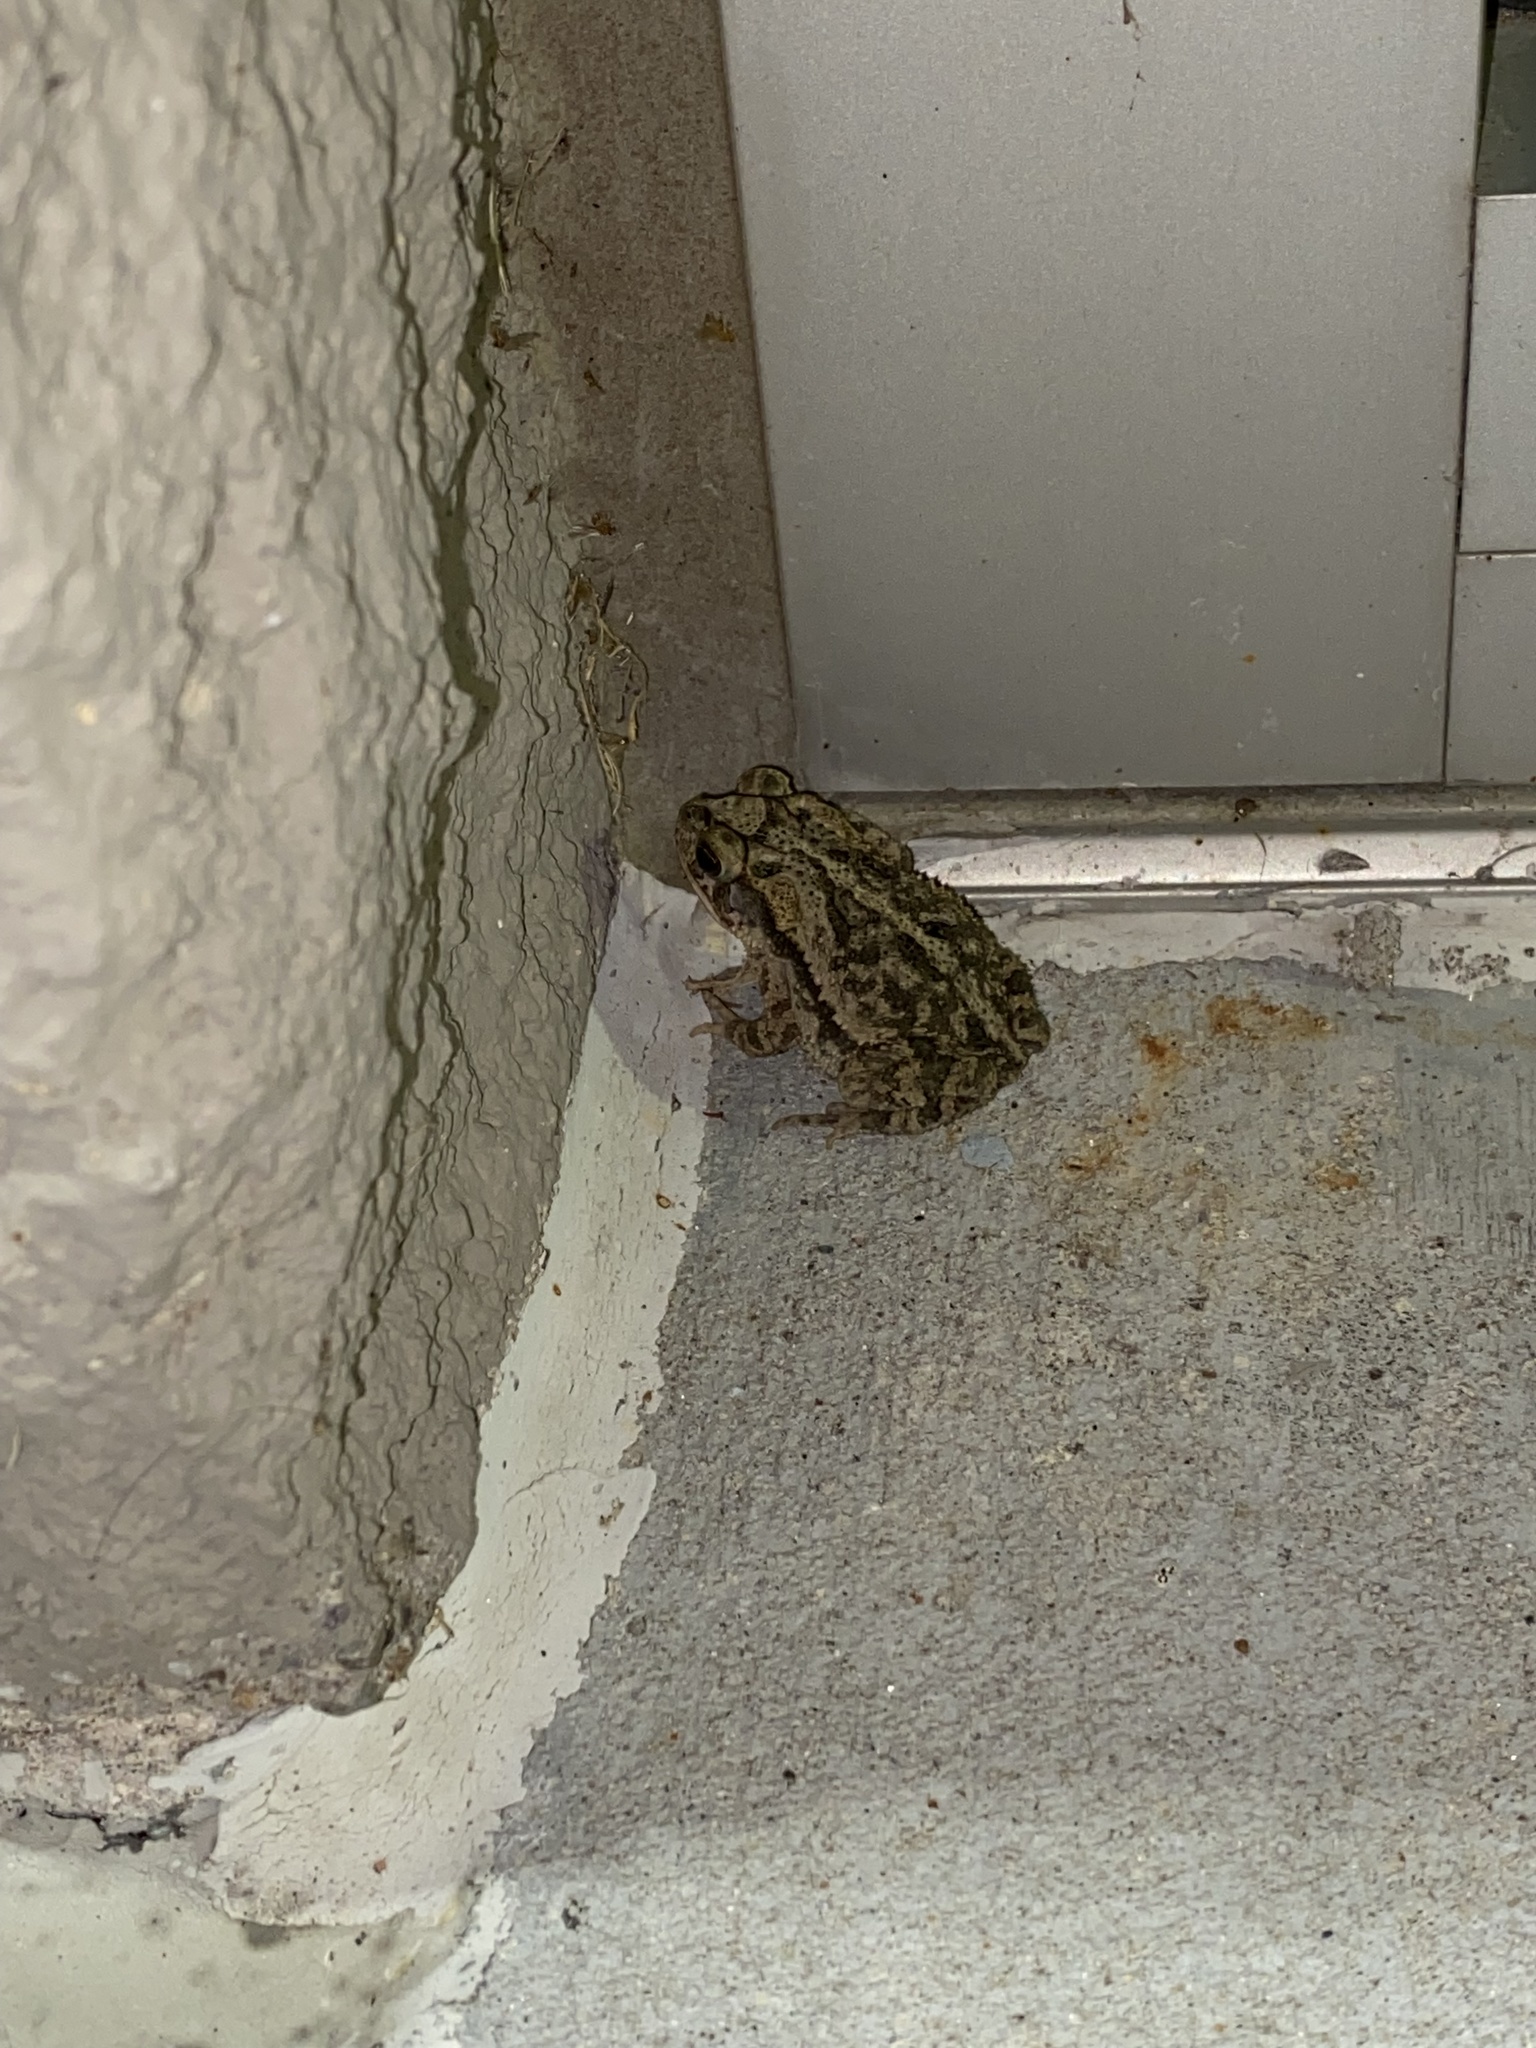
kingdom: Animalia
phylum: Chordata
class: Amphibia
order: Anura
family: Bufonidae
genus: Incilius
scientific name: Incilius nebulifer
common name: Gulf coast toad
